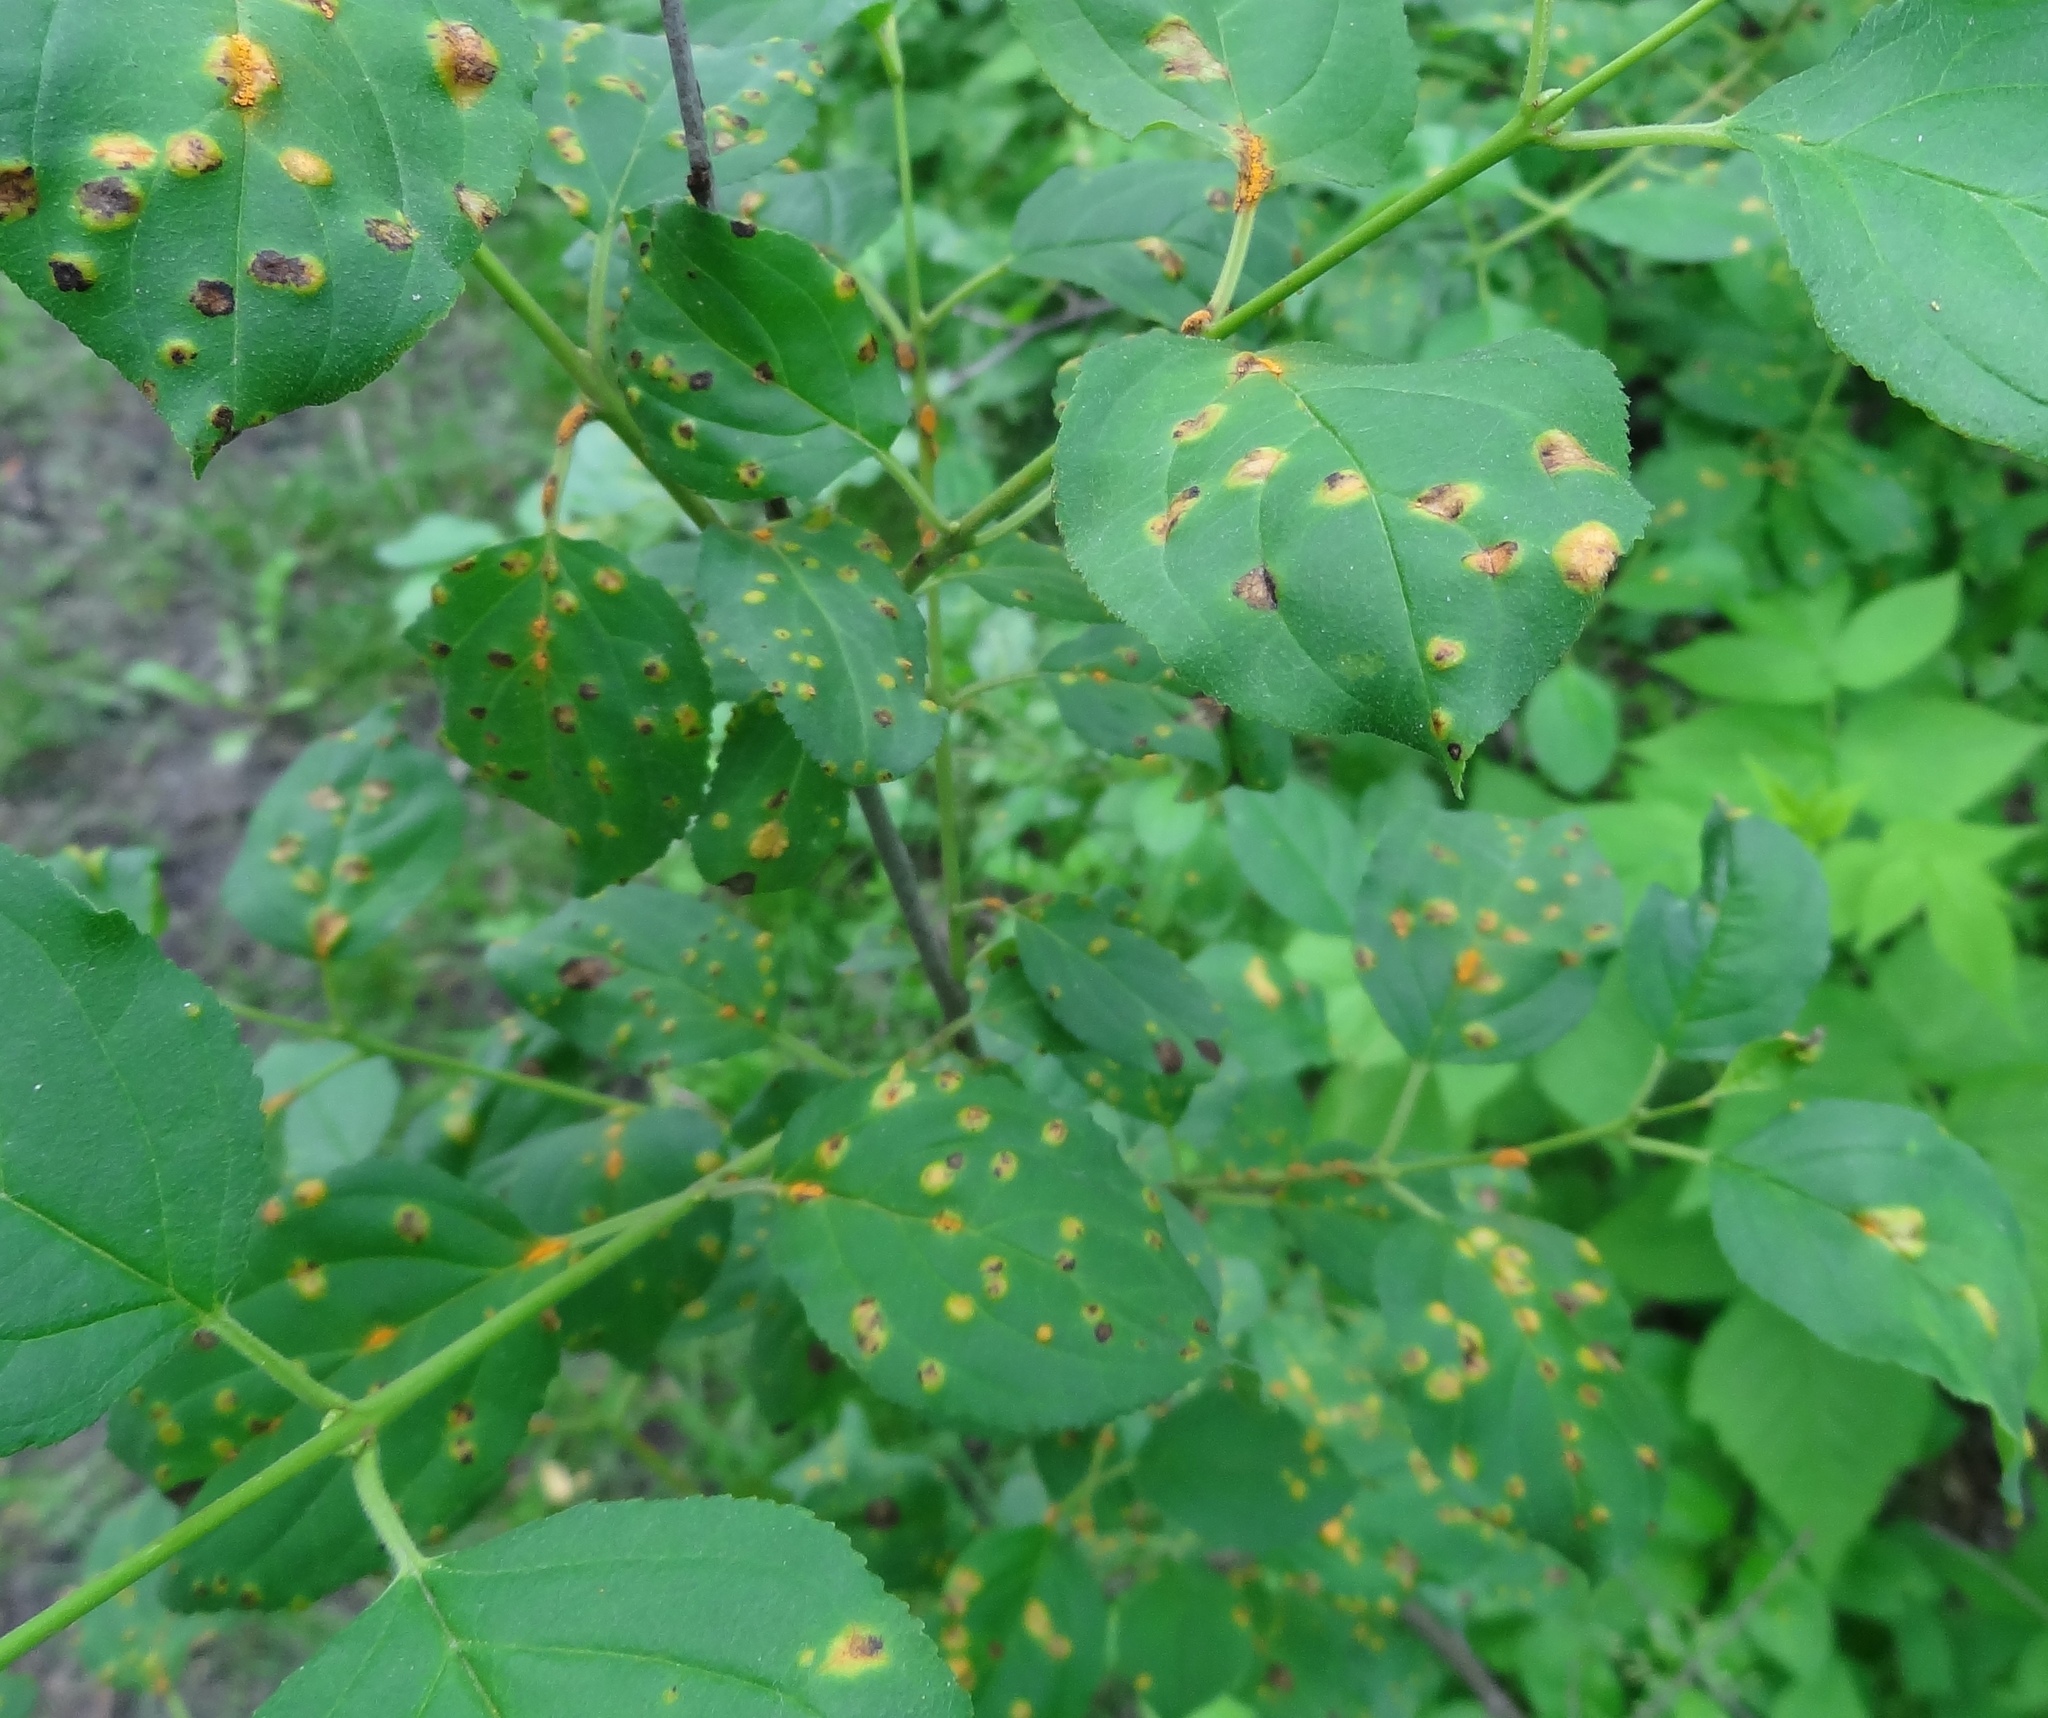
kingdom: Fungi
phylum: Basidiomycota
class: Pucciniomycetes
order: Pucciniales
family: Pucciniaceae
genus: Puccinia
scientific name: Puccinia coronata
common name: Crown rust
